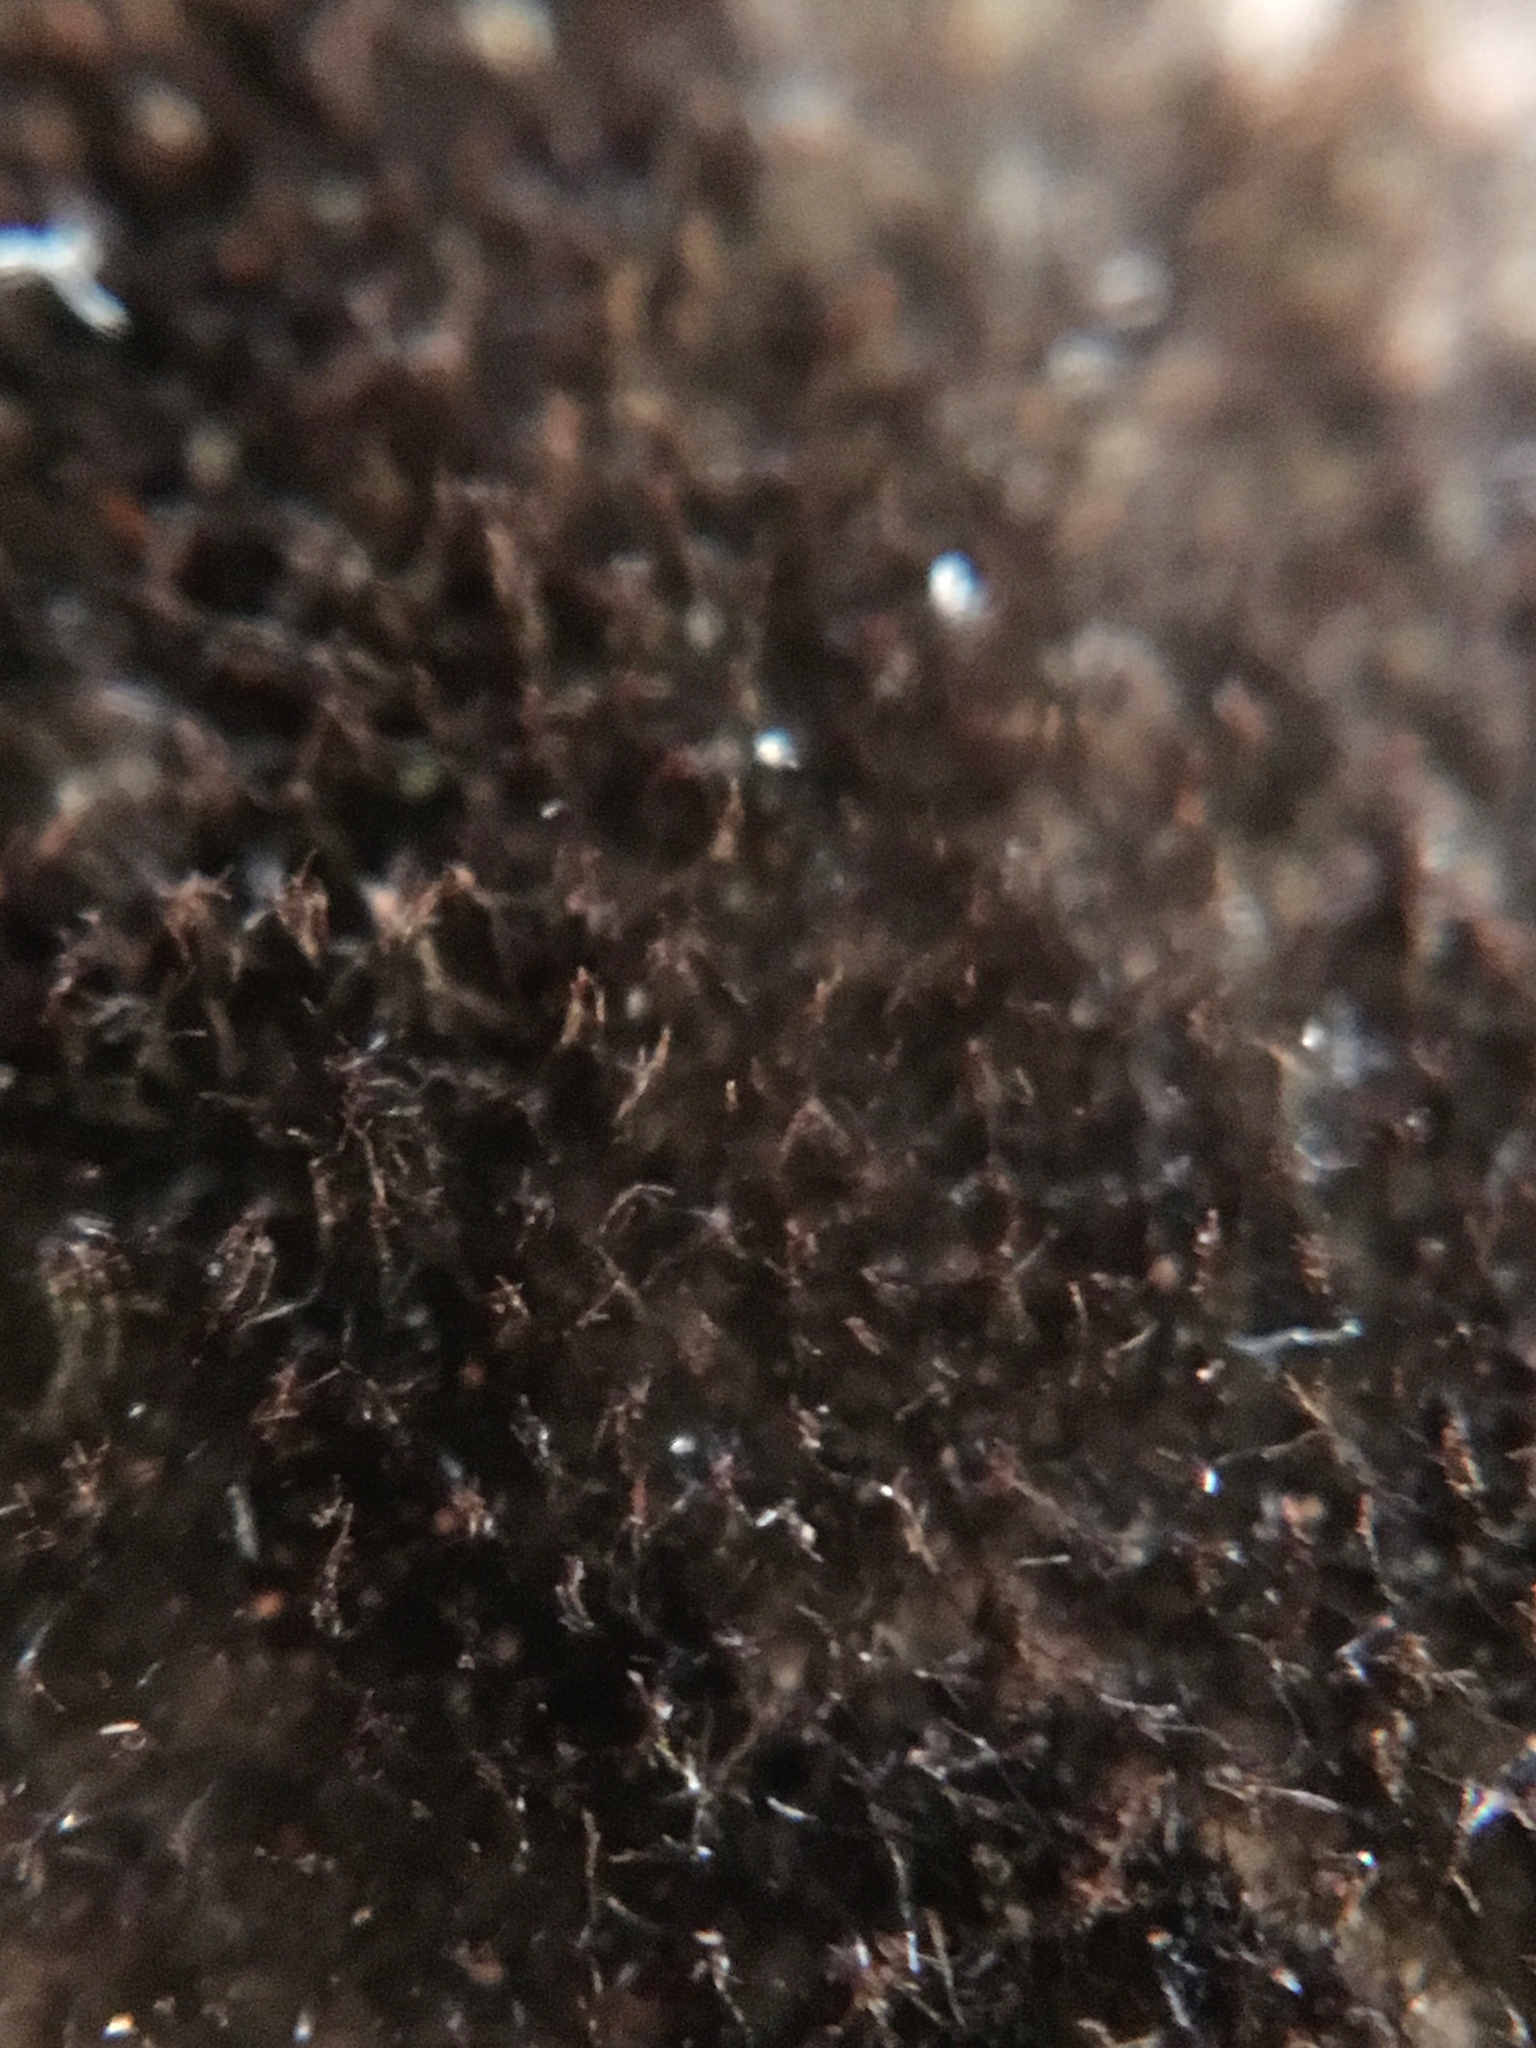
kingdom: Fungi
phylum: Ascomycota
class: Dothideomycetes
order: Pleosporales
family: Massarinaceae
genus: Helminthosporium
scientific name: Helminthosporium velutinum
